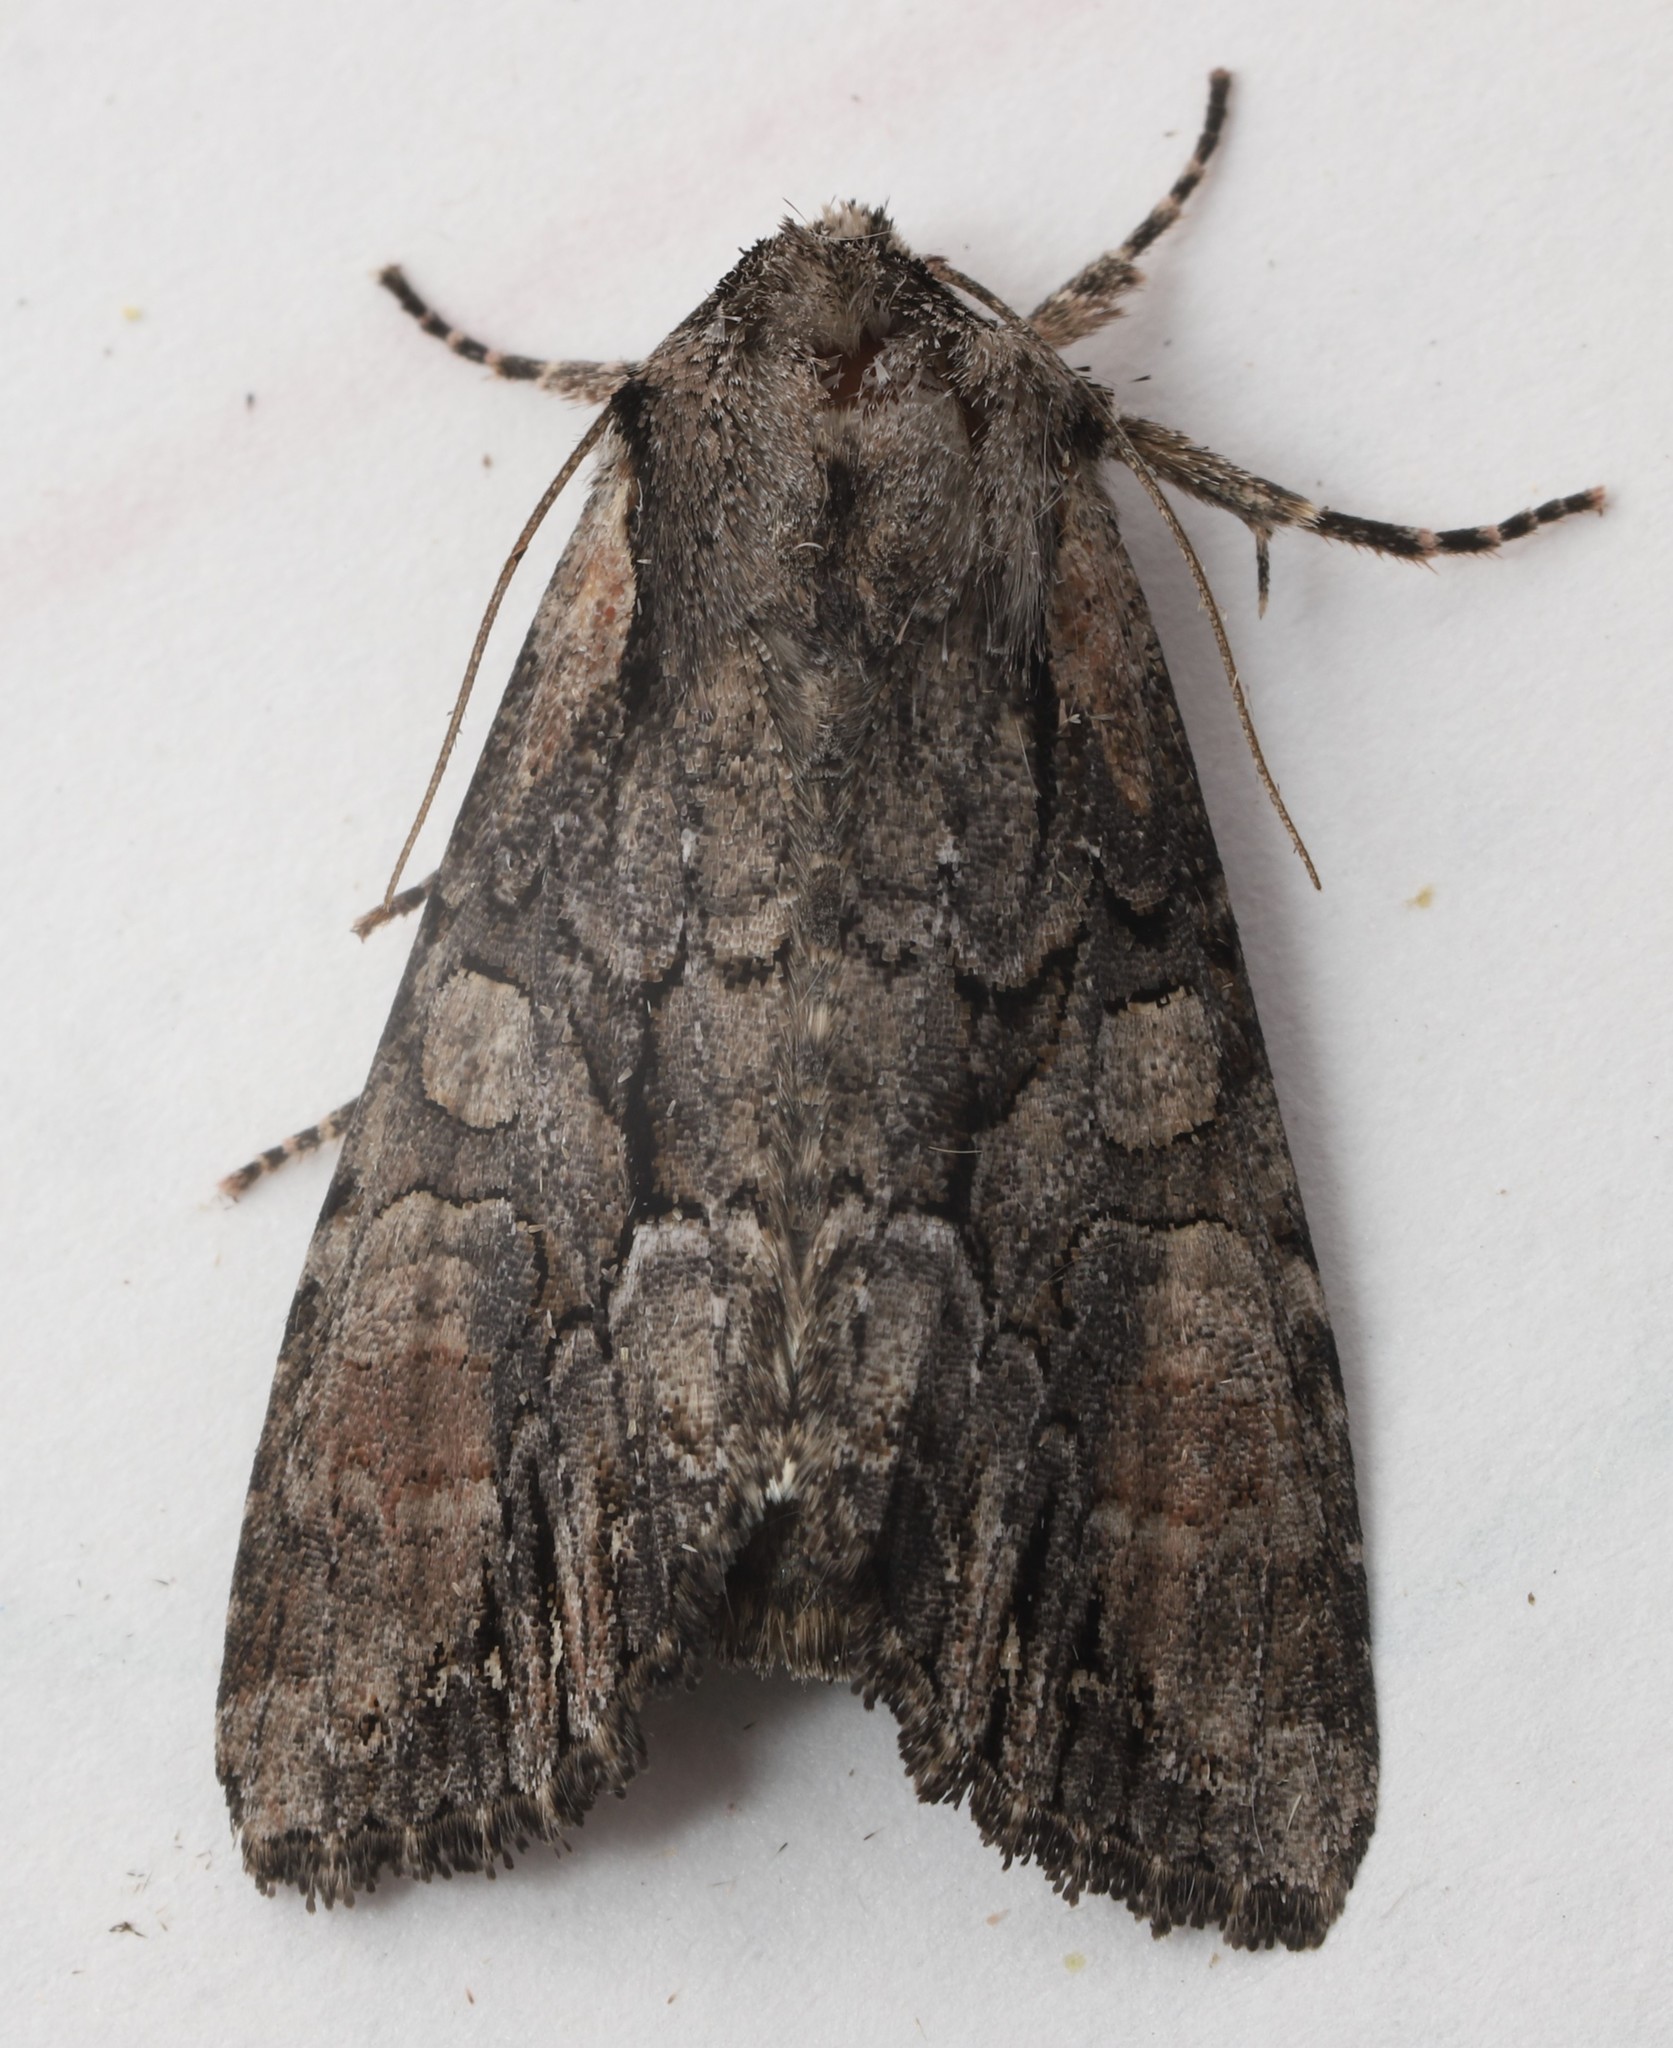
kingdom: Animalia
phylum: Arthropoda
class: Insecta
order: Lepidoptera
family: Noctuidae
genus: Lacanobia
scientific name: Lacanobia subjuncta
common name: Speckled cutworm moth
